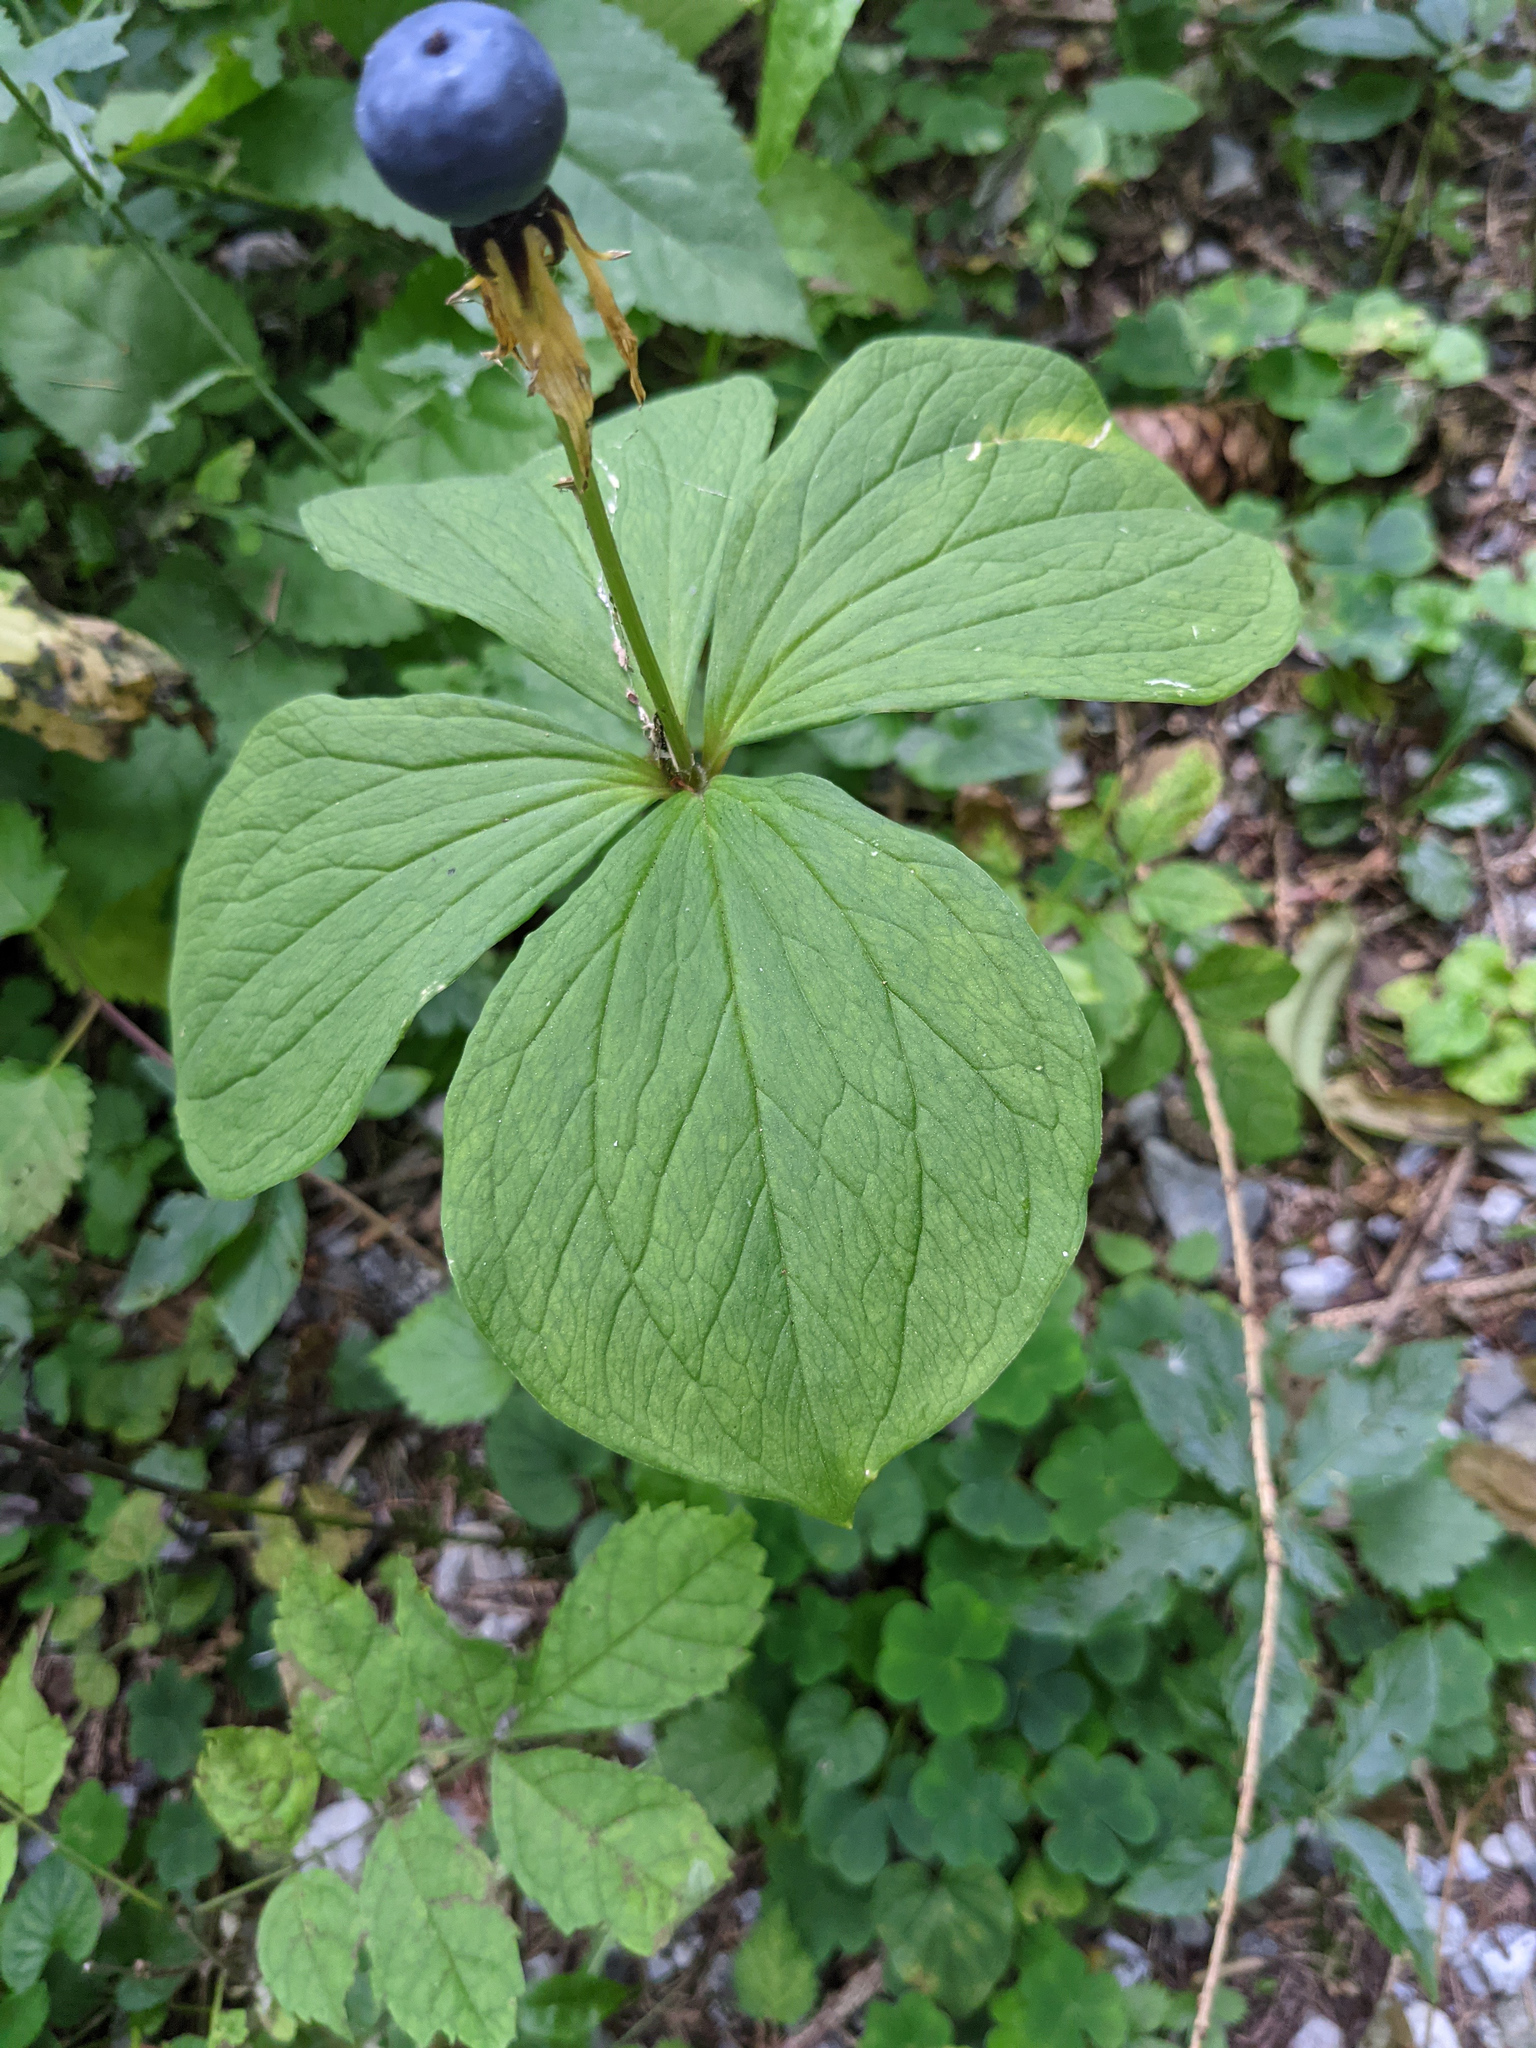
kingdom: Plantae
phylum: Tracheophyta
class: Liliopsida
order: Liliales
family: Melanthiaceae
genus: Paris
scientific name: Paris quadrifolia
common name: Herb-paris
